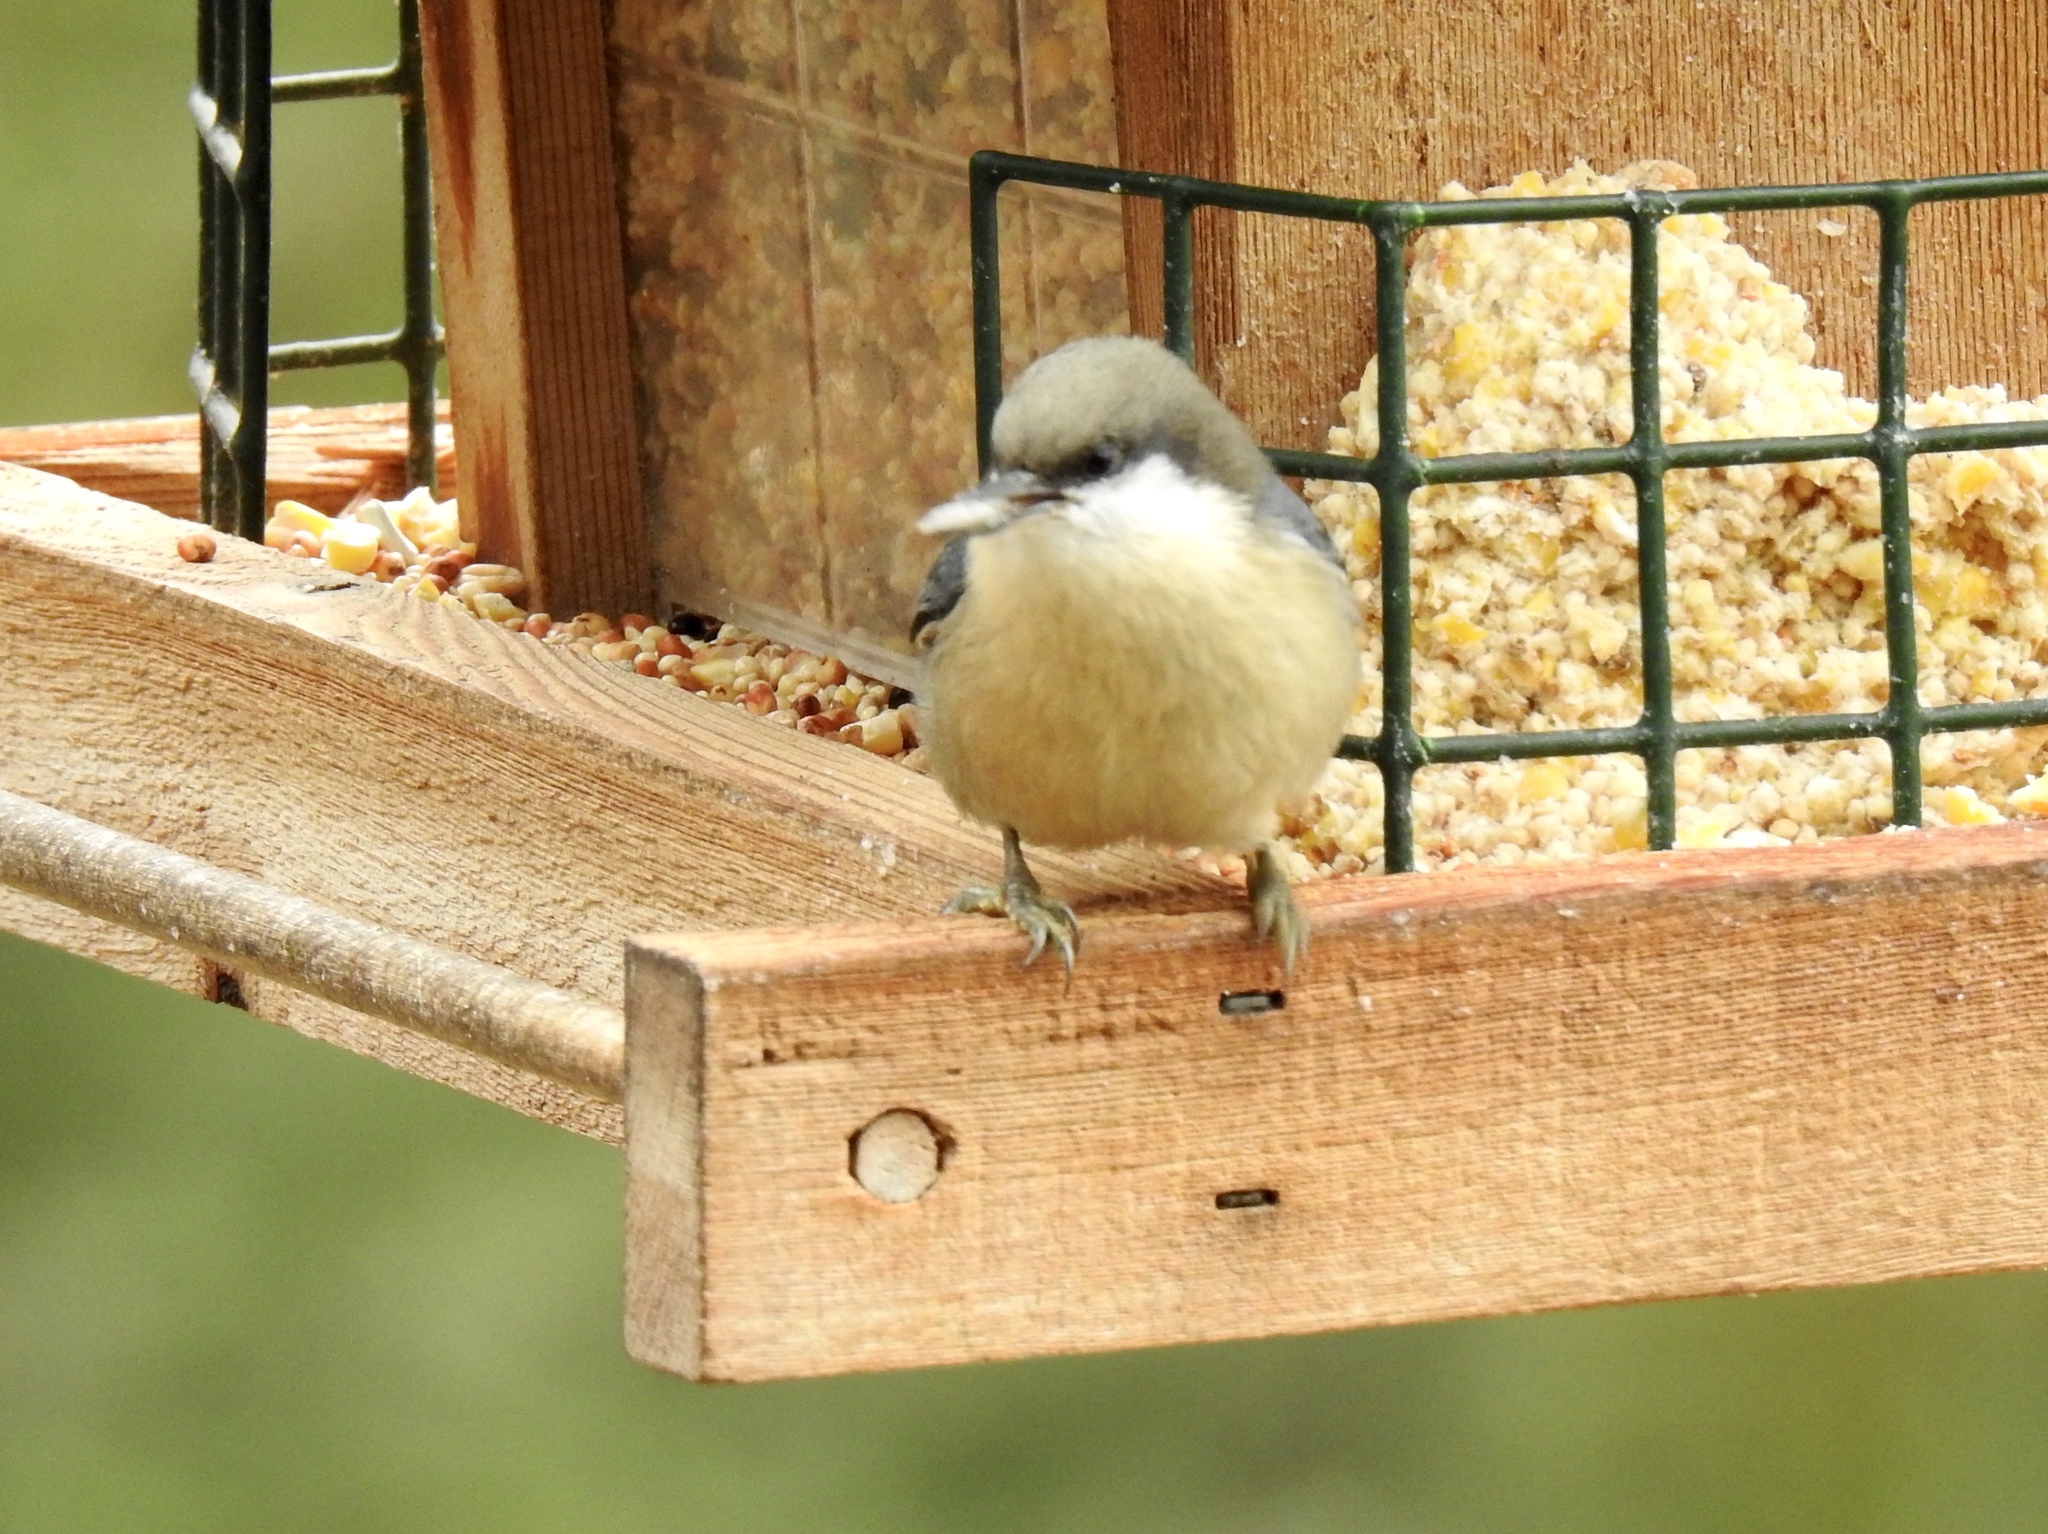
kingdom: Animalia
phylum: Chordata
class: Aves
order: Passeriformes
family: Sittidae
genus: Sitta
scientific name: Sitta pygmaea
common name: Pygmy nuthatch
